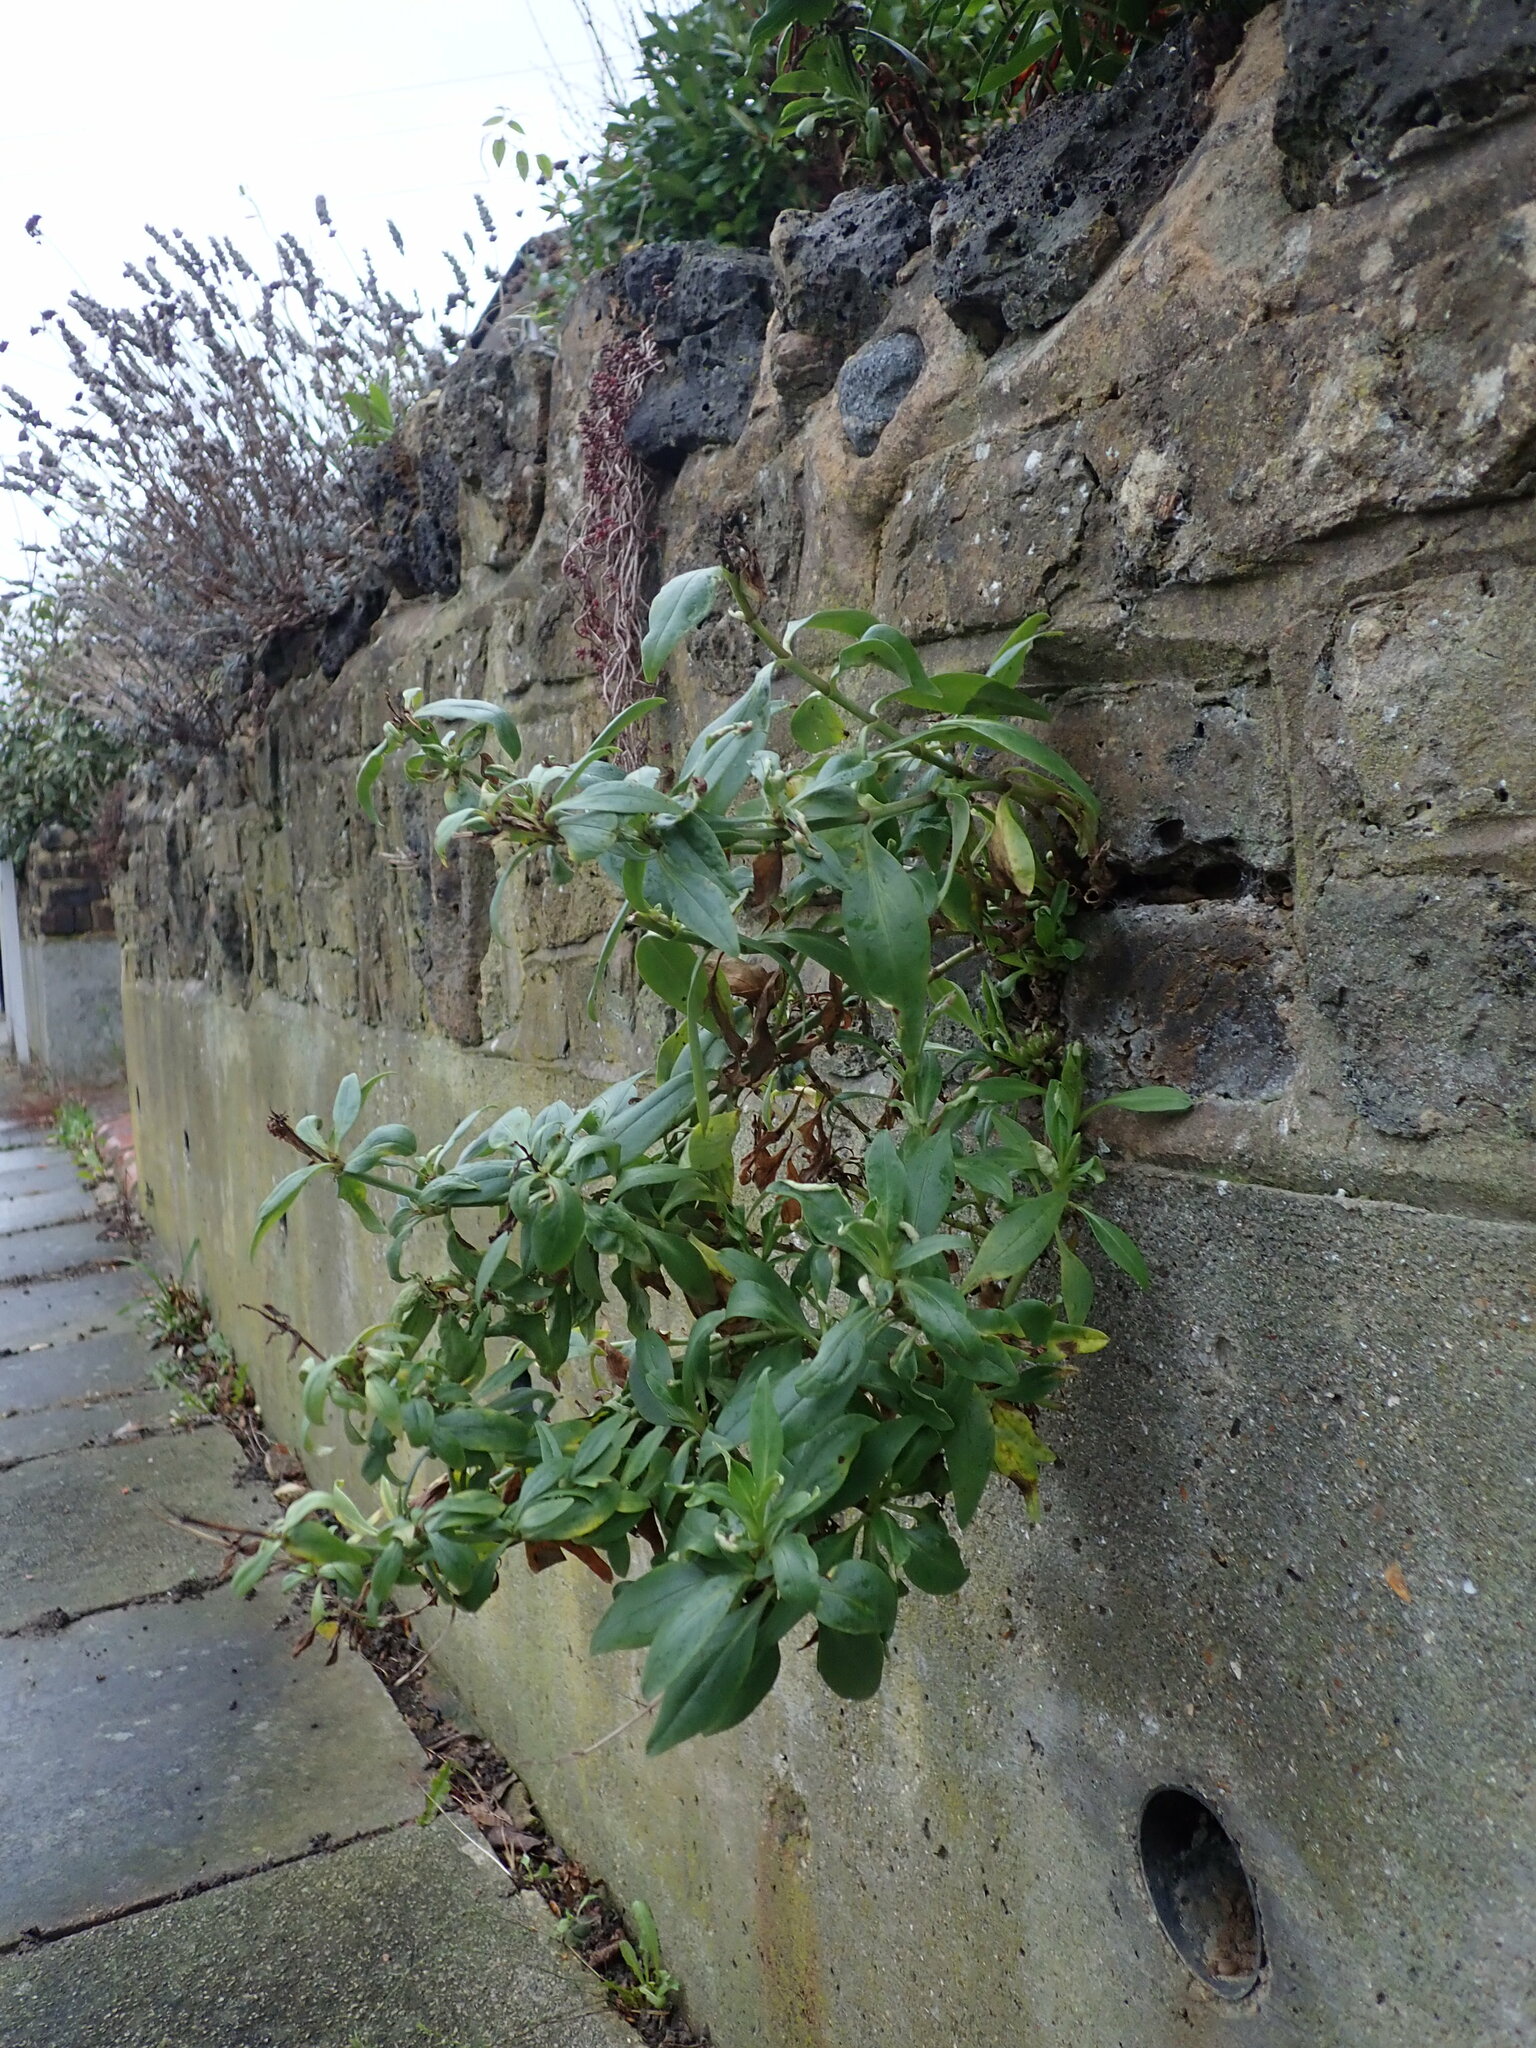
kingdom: Plantae
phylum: Tracheophyta
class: Magnoliopsida
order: Dipsacales
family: Caprifoliaceae
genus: Centranthus
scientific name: Centranthus ruber
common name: Red valerian
